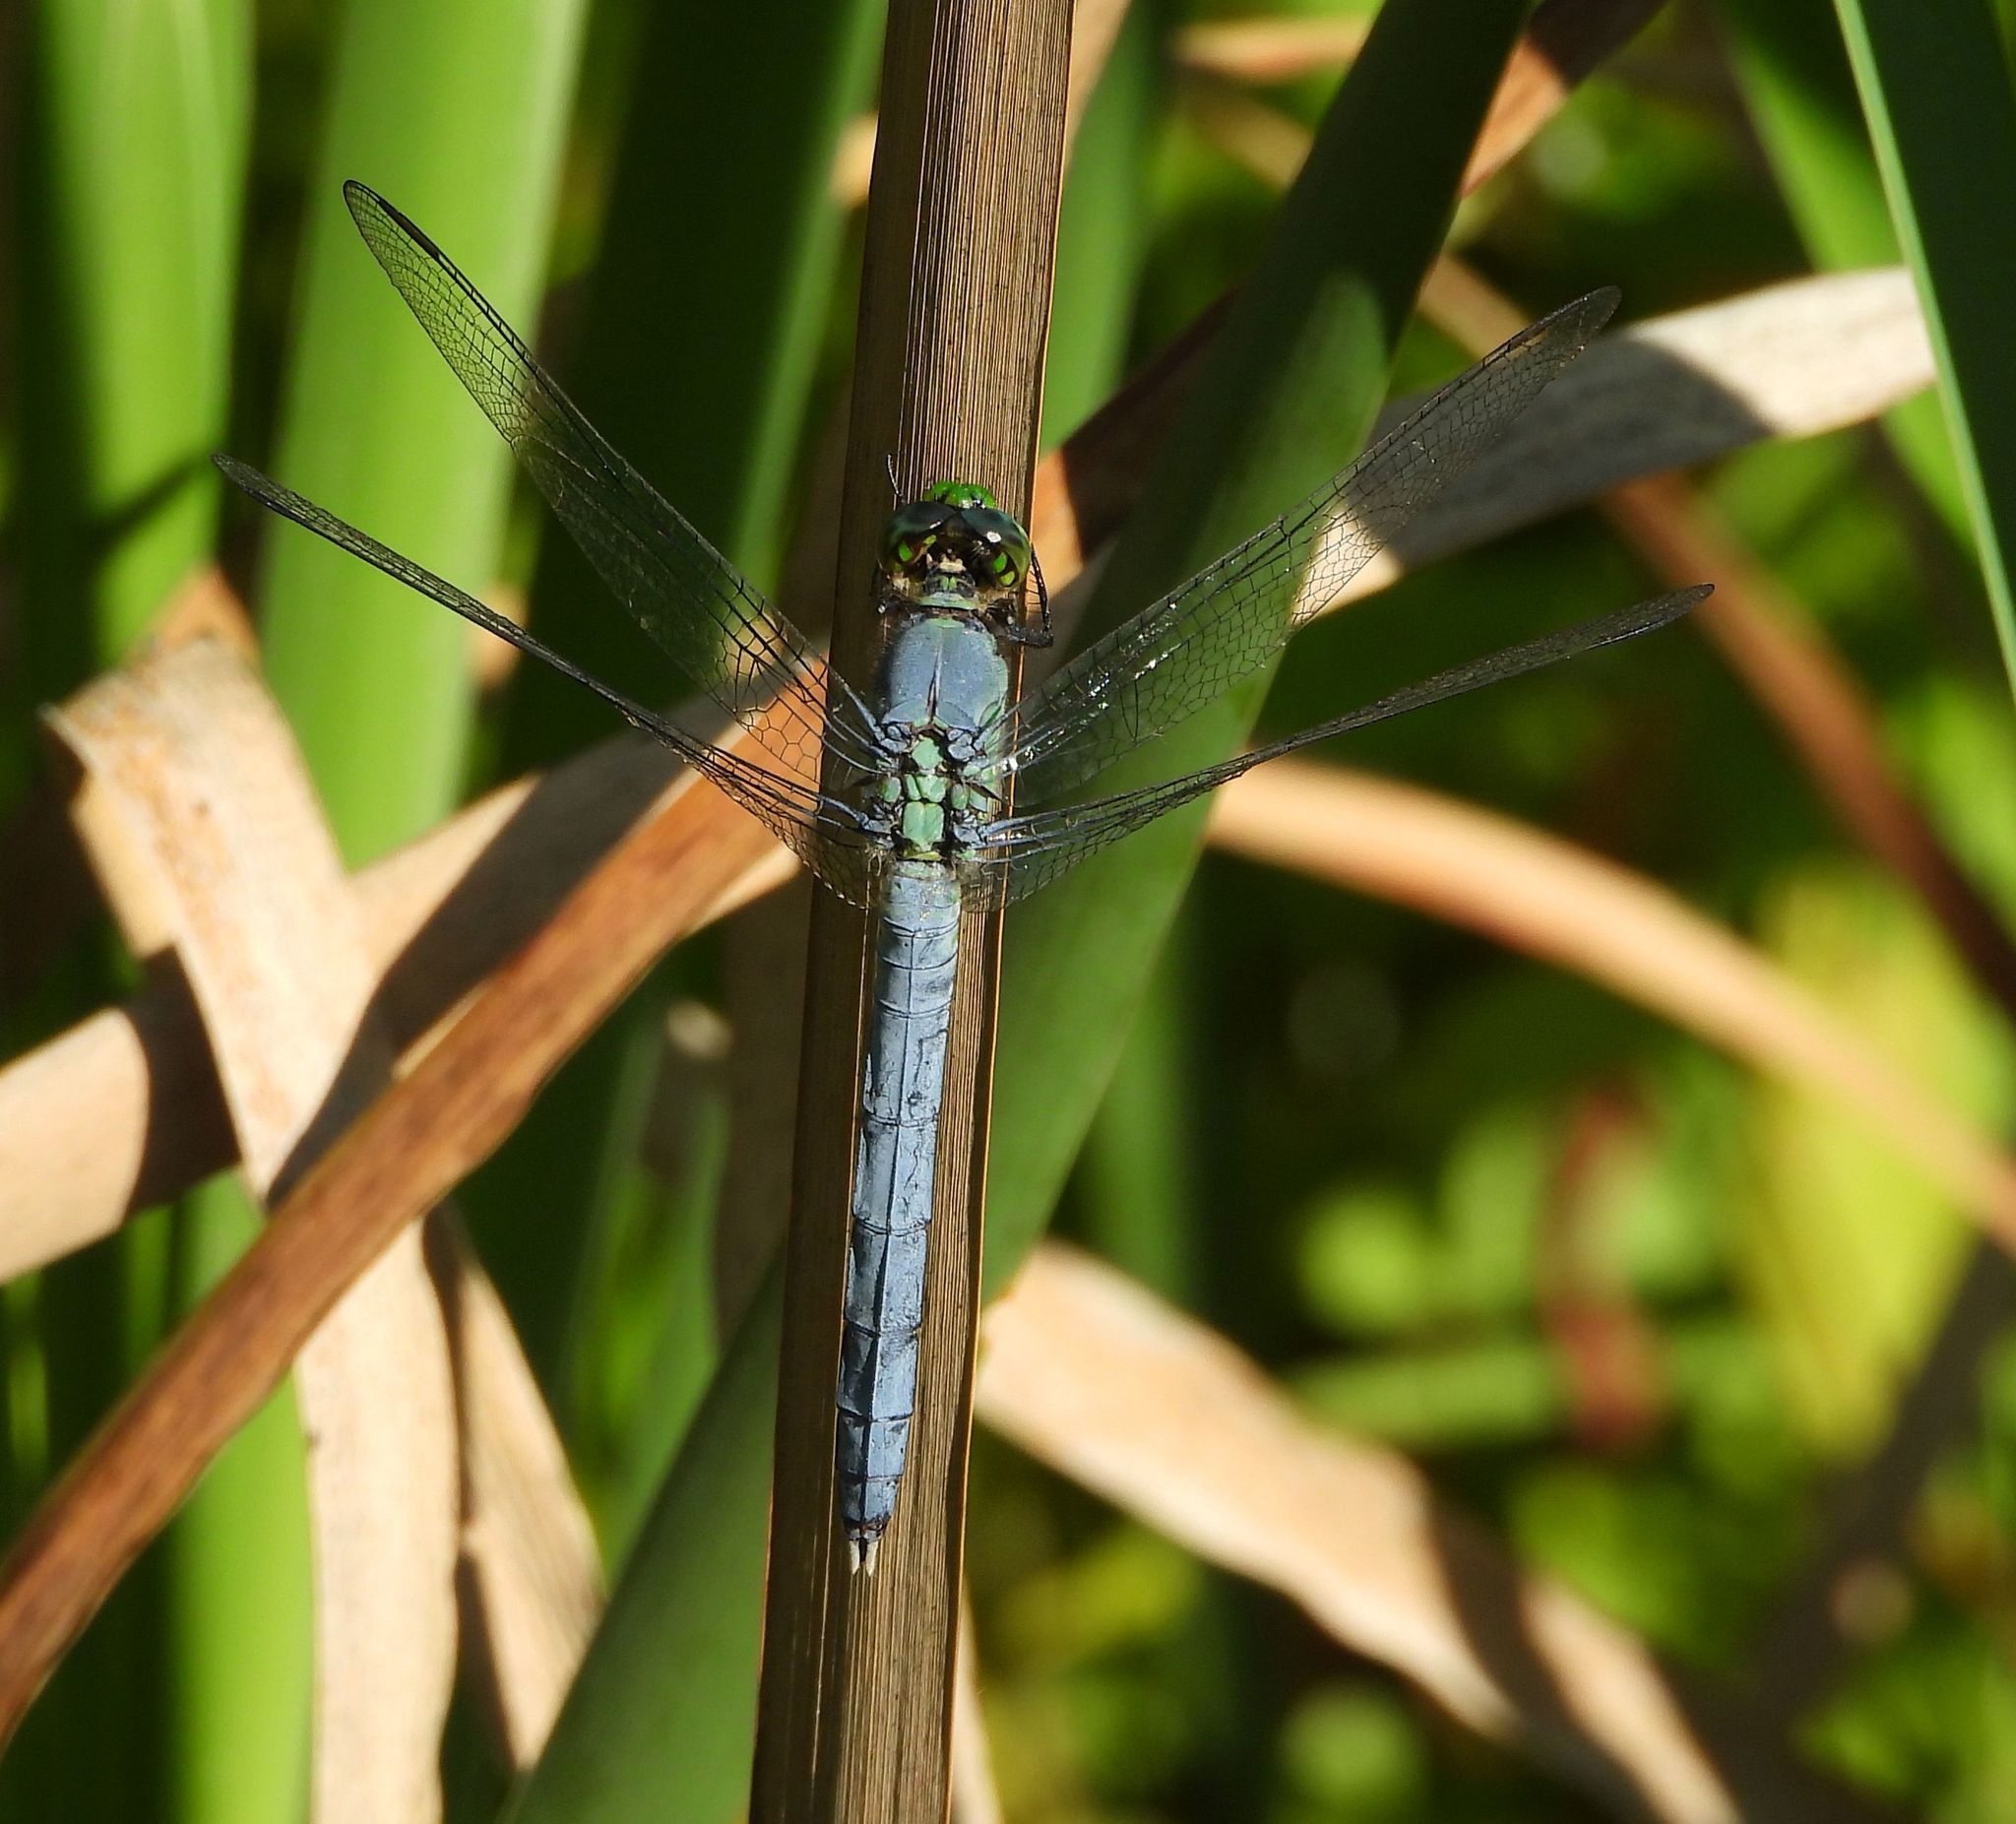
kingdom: Animalia
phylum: Arthropoda
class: Insecta
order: Odonata
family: Libellulidae
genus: Erythemis
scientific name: Erythemis simplicicollis
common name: Eastern pondhawk
